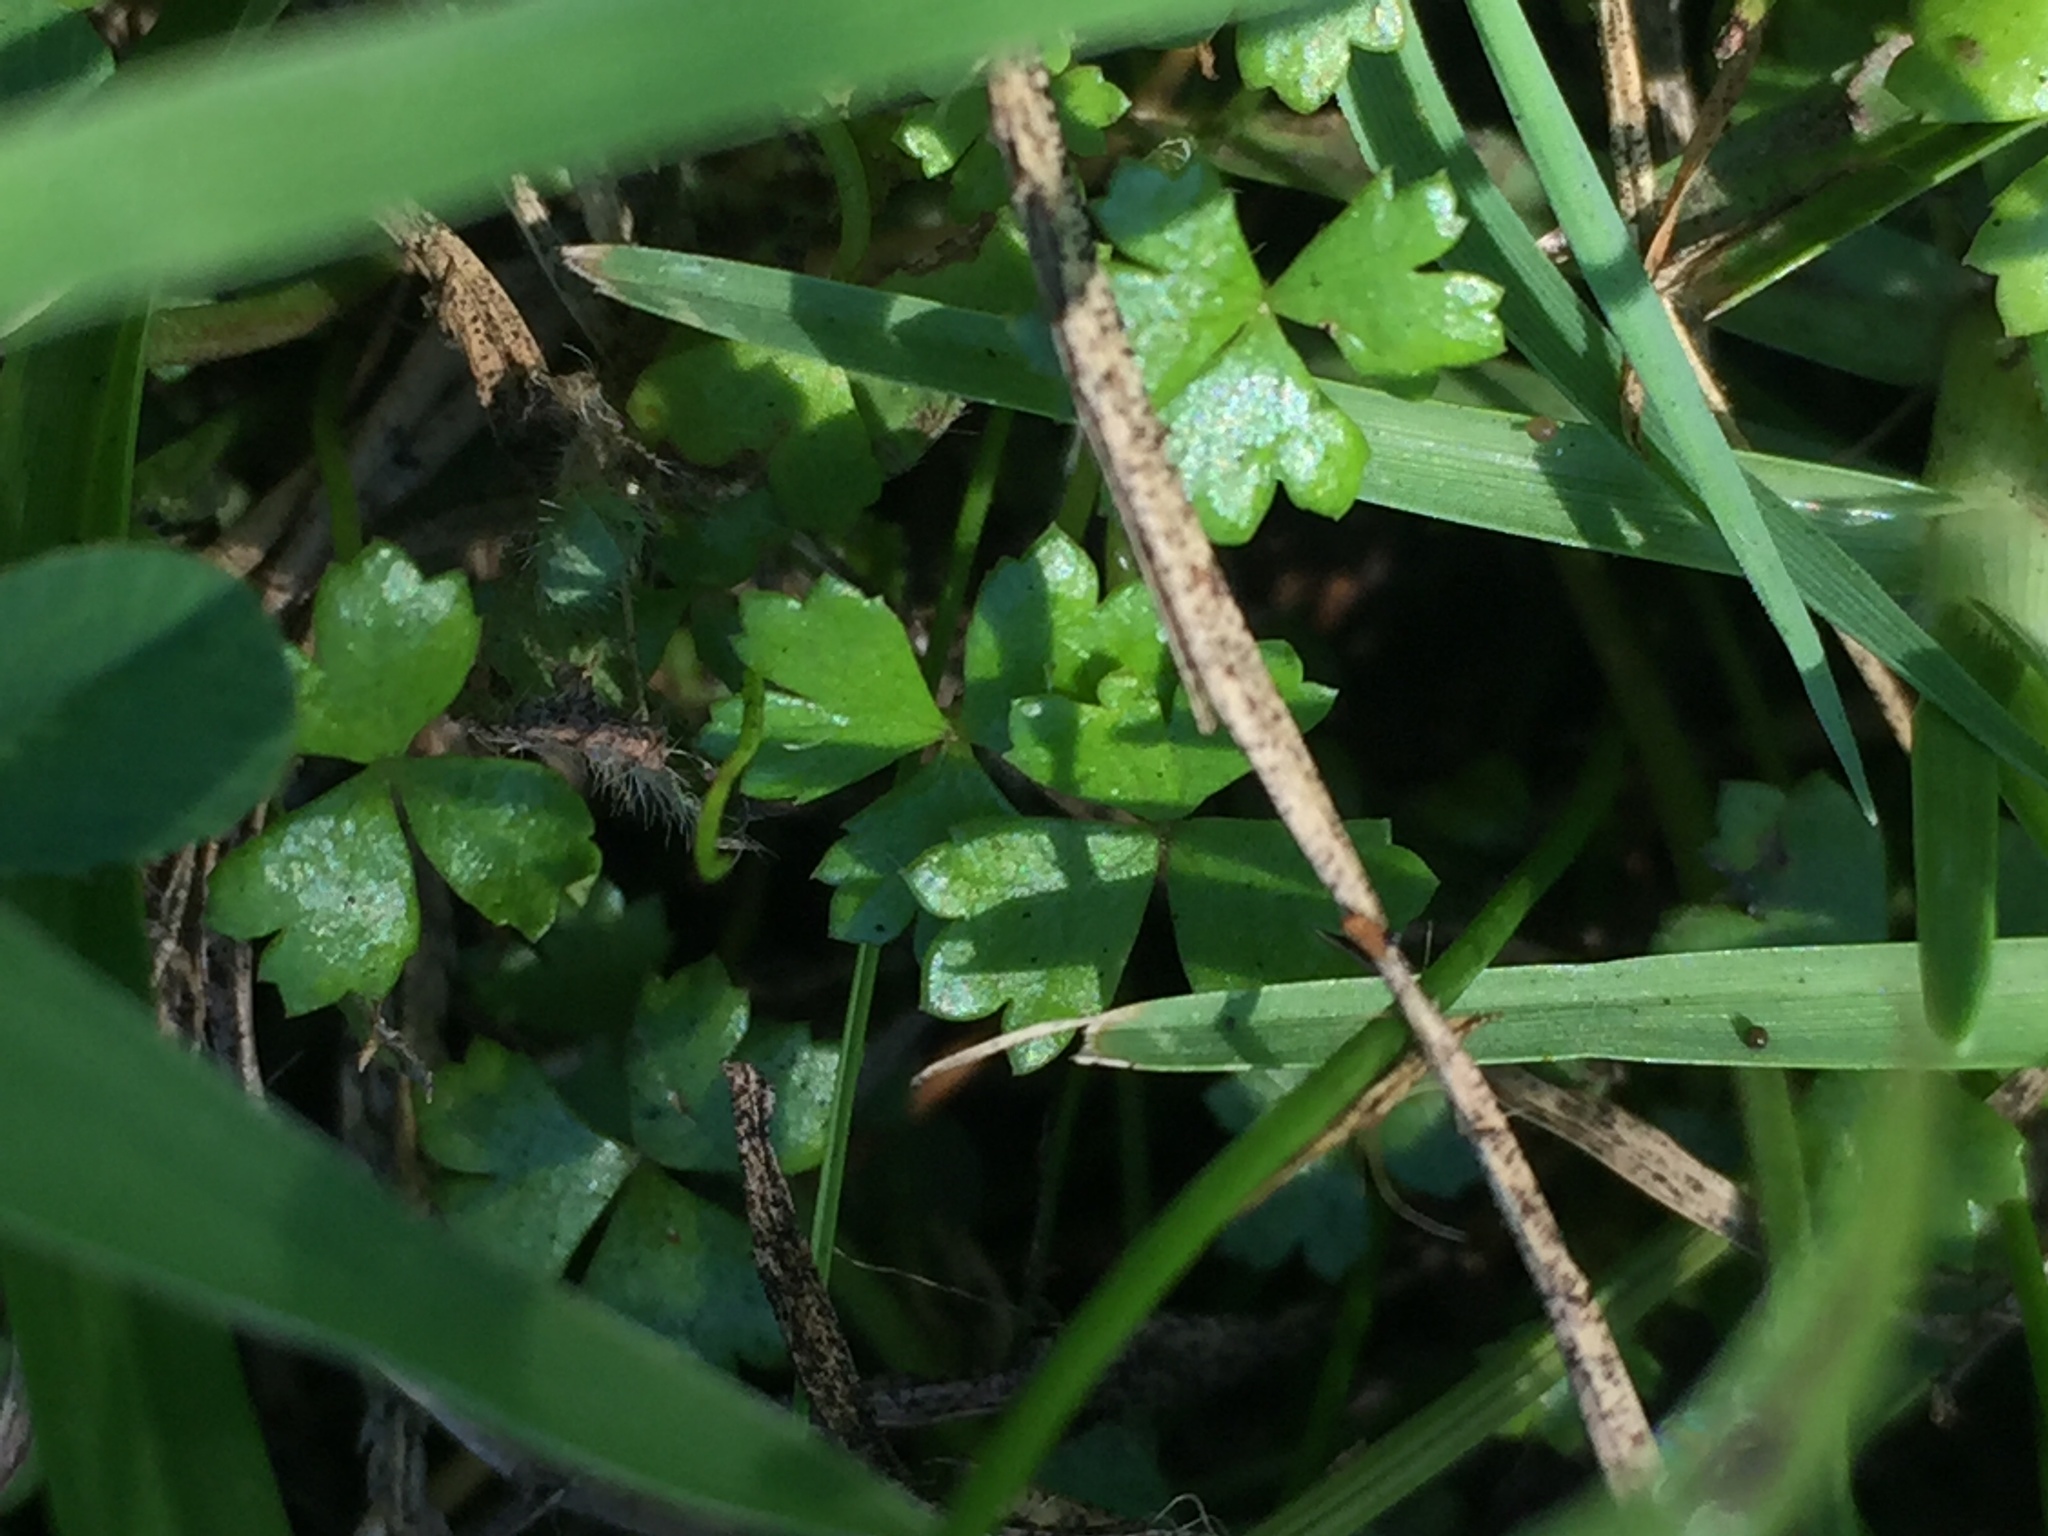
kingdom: Plantae
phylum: Tracheophyta
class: Magnoliopsida
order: Apiales
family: Araliaceae
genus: Hydrocotyle
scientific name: Hydrocotyle tripartita
